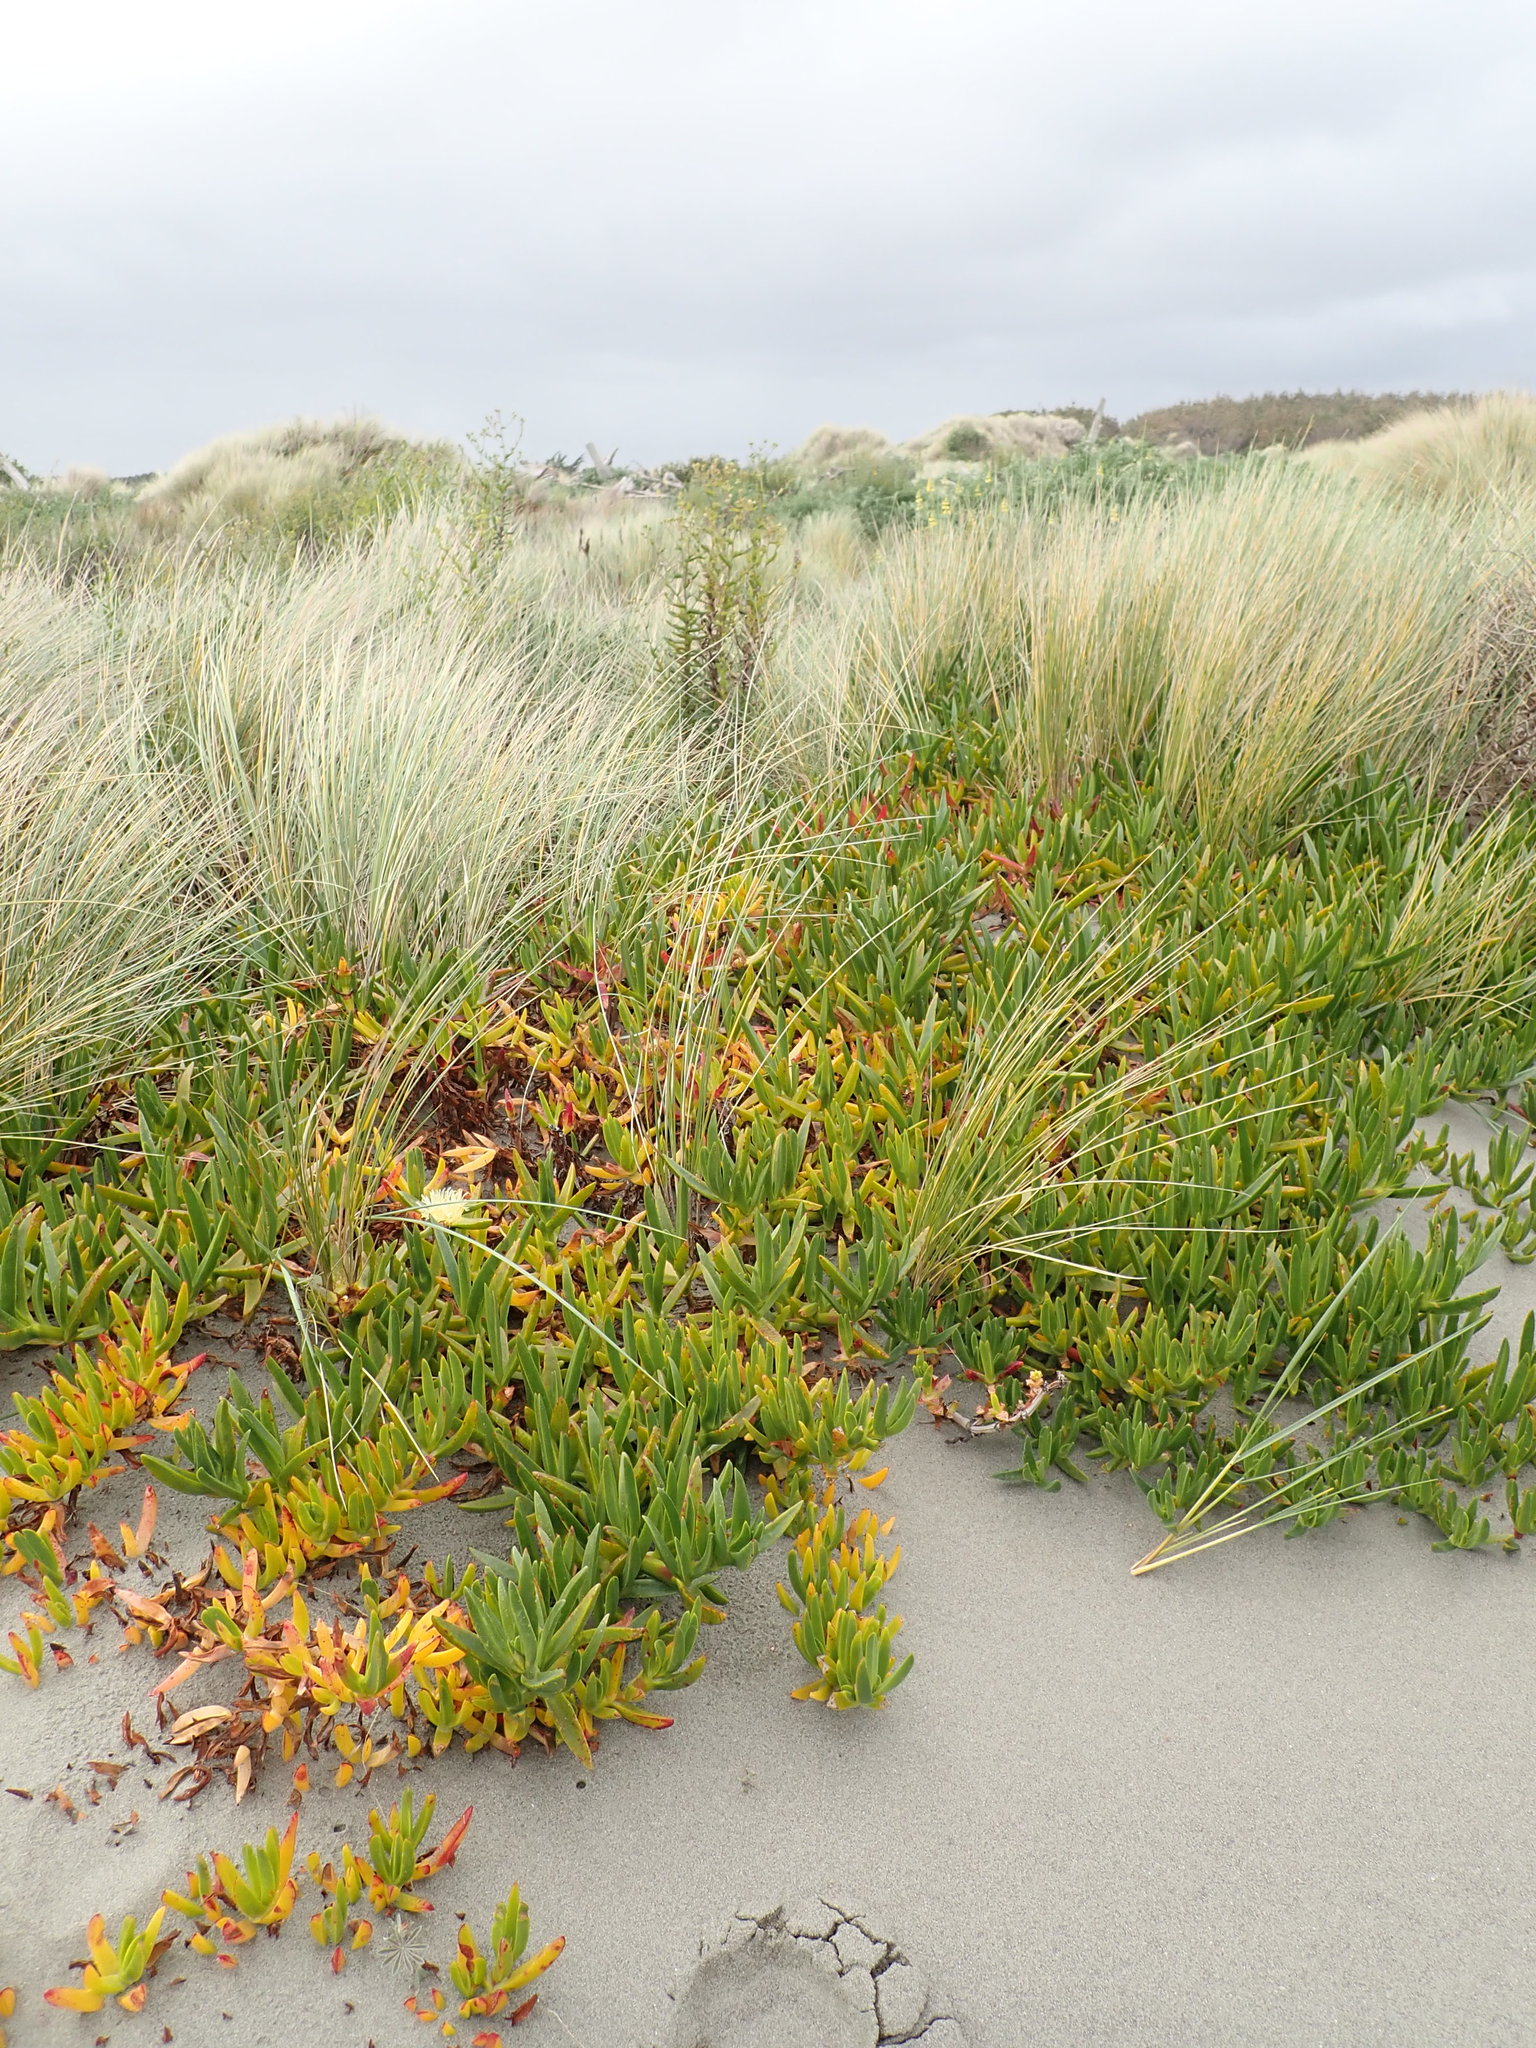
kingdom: Plantae
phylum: Tracheophyta
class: Magnoliopsida
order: Caryophyllales
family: Aizoaceae
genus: Carpobrotus
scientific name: Carpobrotus edulis
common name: Hottentot-fig
